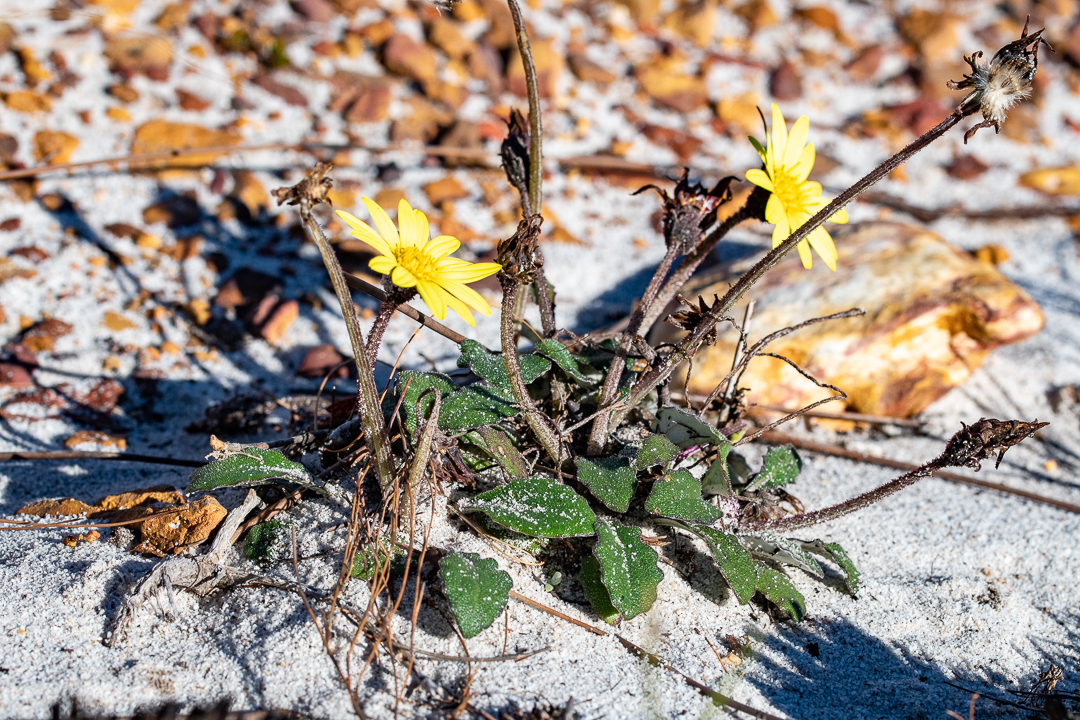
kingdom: Plantae
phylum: Tracheophyta
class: Magnoliopsida
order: Asterales
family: Asteraceae
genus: Haplocarpha
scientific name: Haplocarpha lanata
